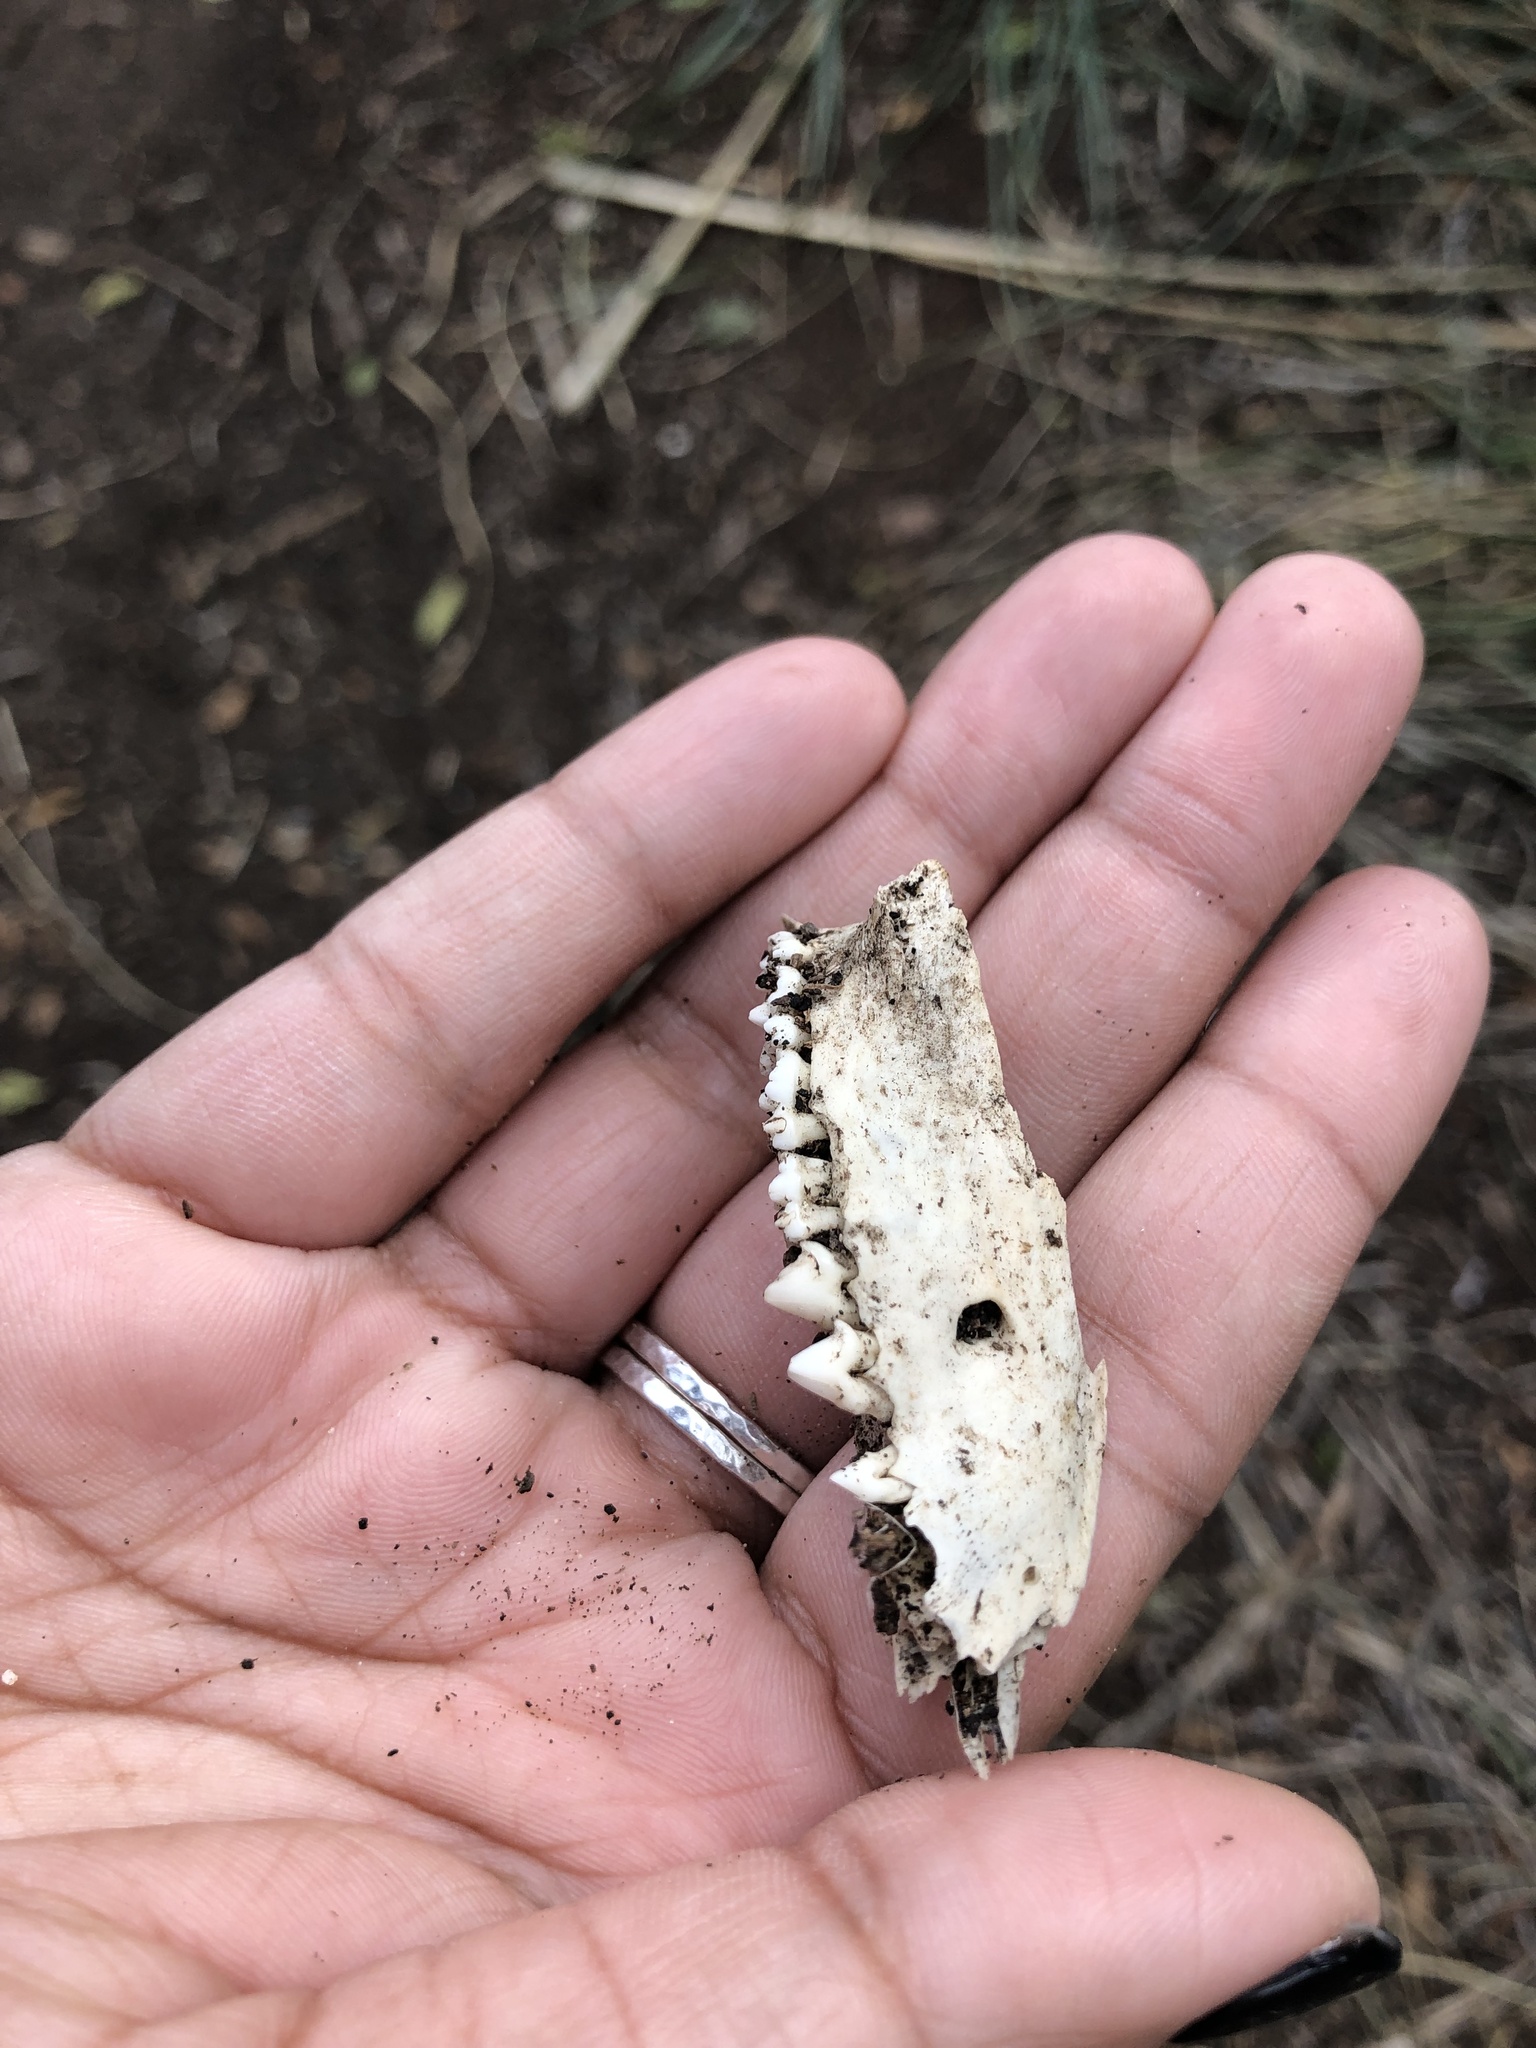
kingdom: Animalia
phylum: Chordata
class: Mammalia
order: Didelphimorphia
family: Didelphidae
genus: Didelphis
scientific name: Didelphis virginiana
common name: Virginia opossum
